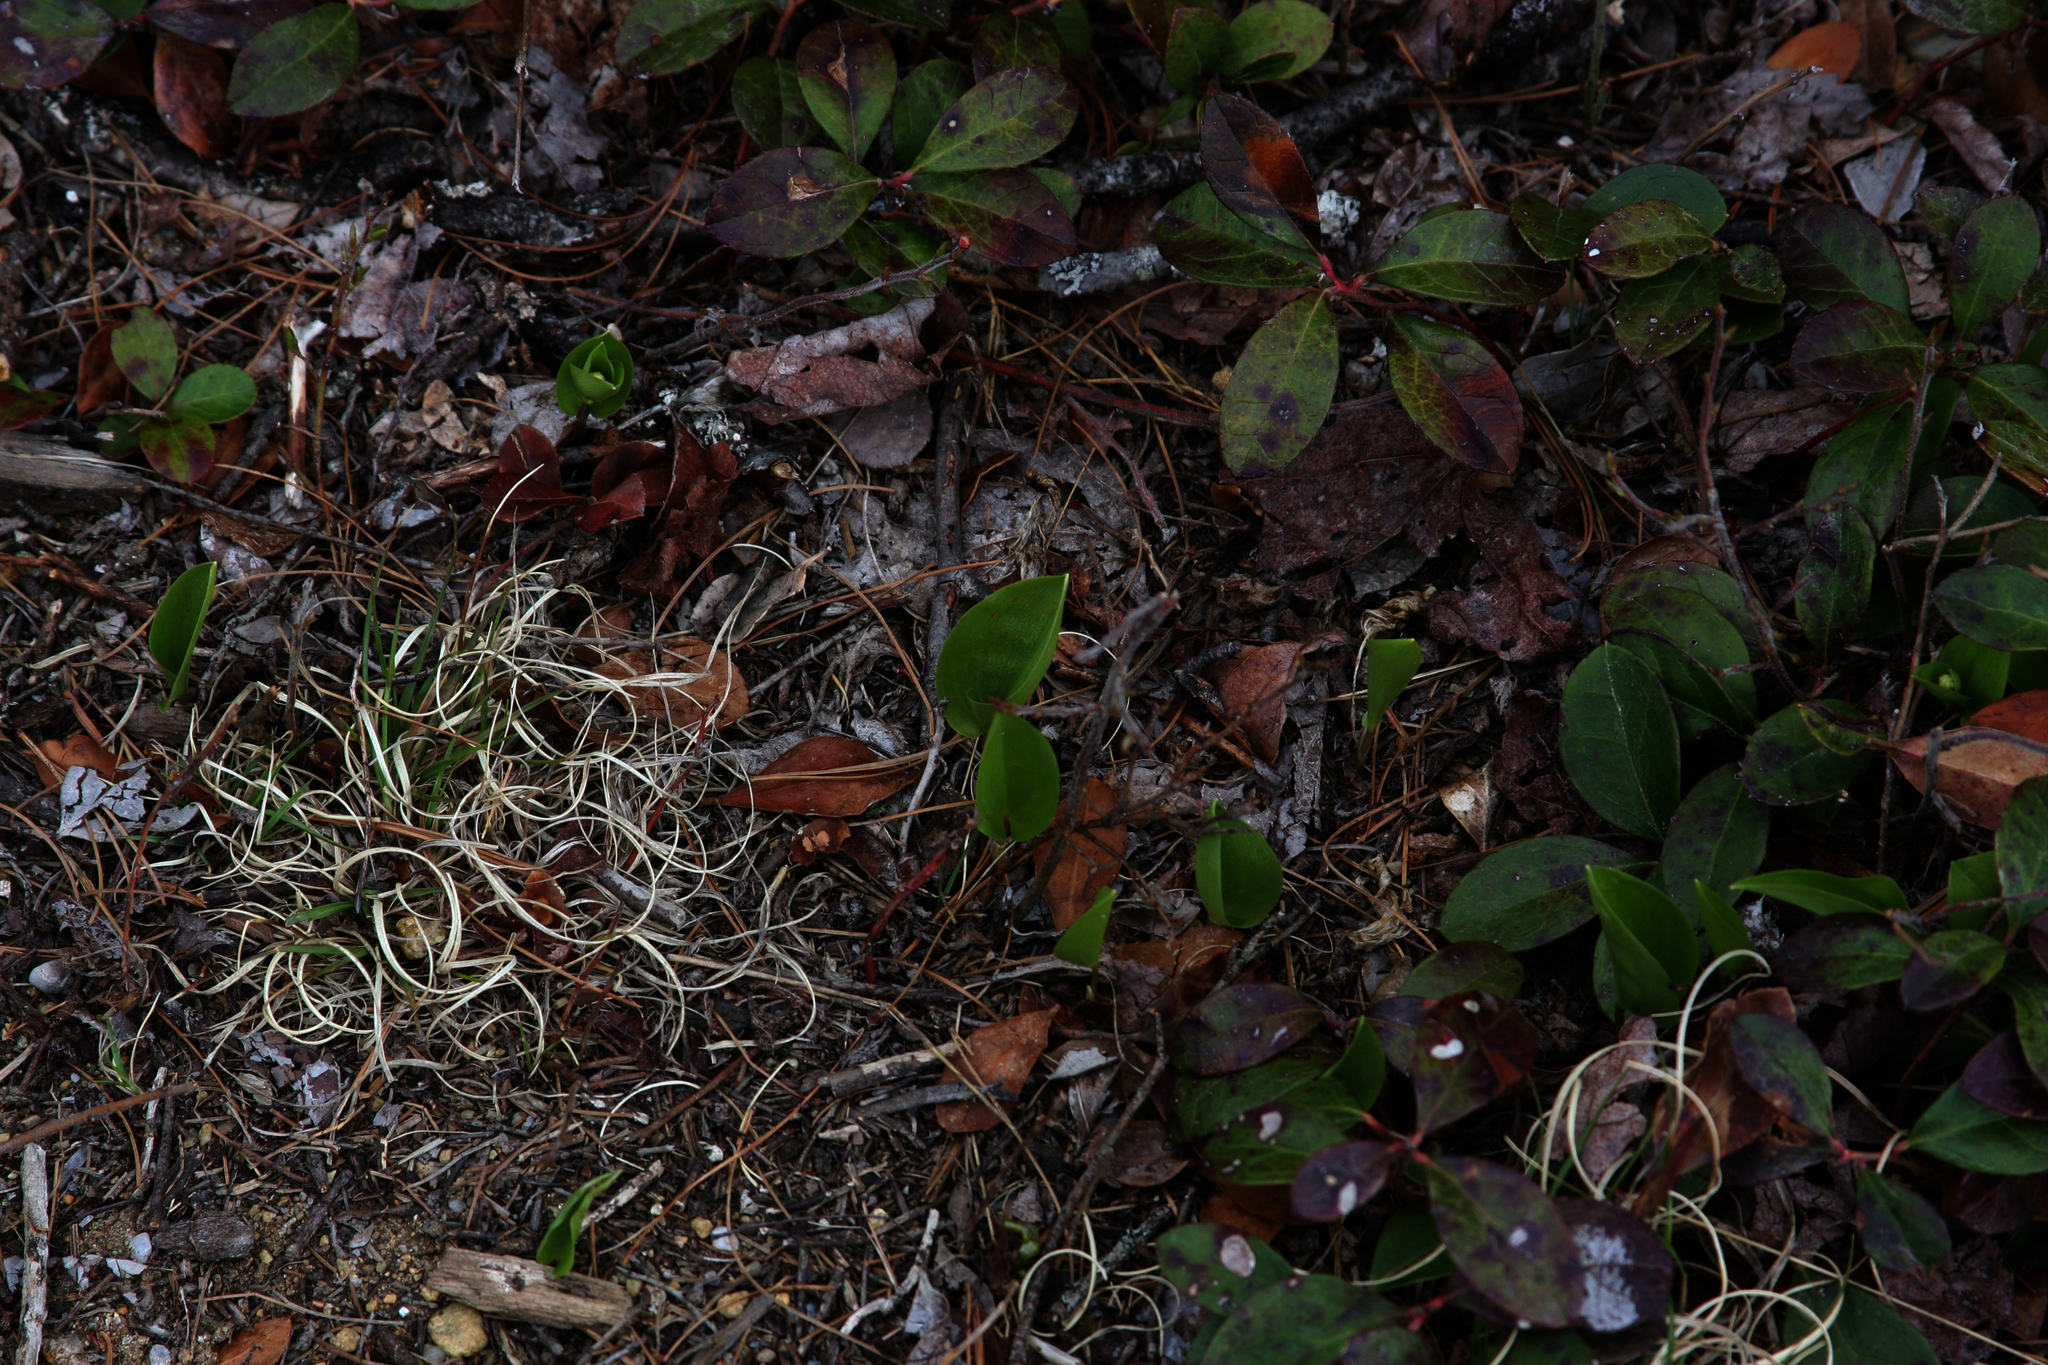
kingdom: Plantae
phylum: Tracheophyta
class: Liliopsida
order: Asparagales
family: Asparagaceae
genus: Maianthemum
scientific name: Maianthemum canadense
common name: False lily-of-the-valley
